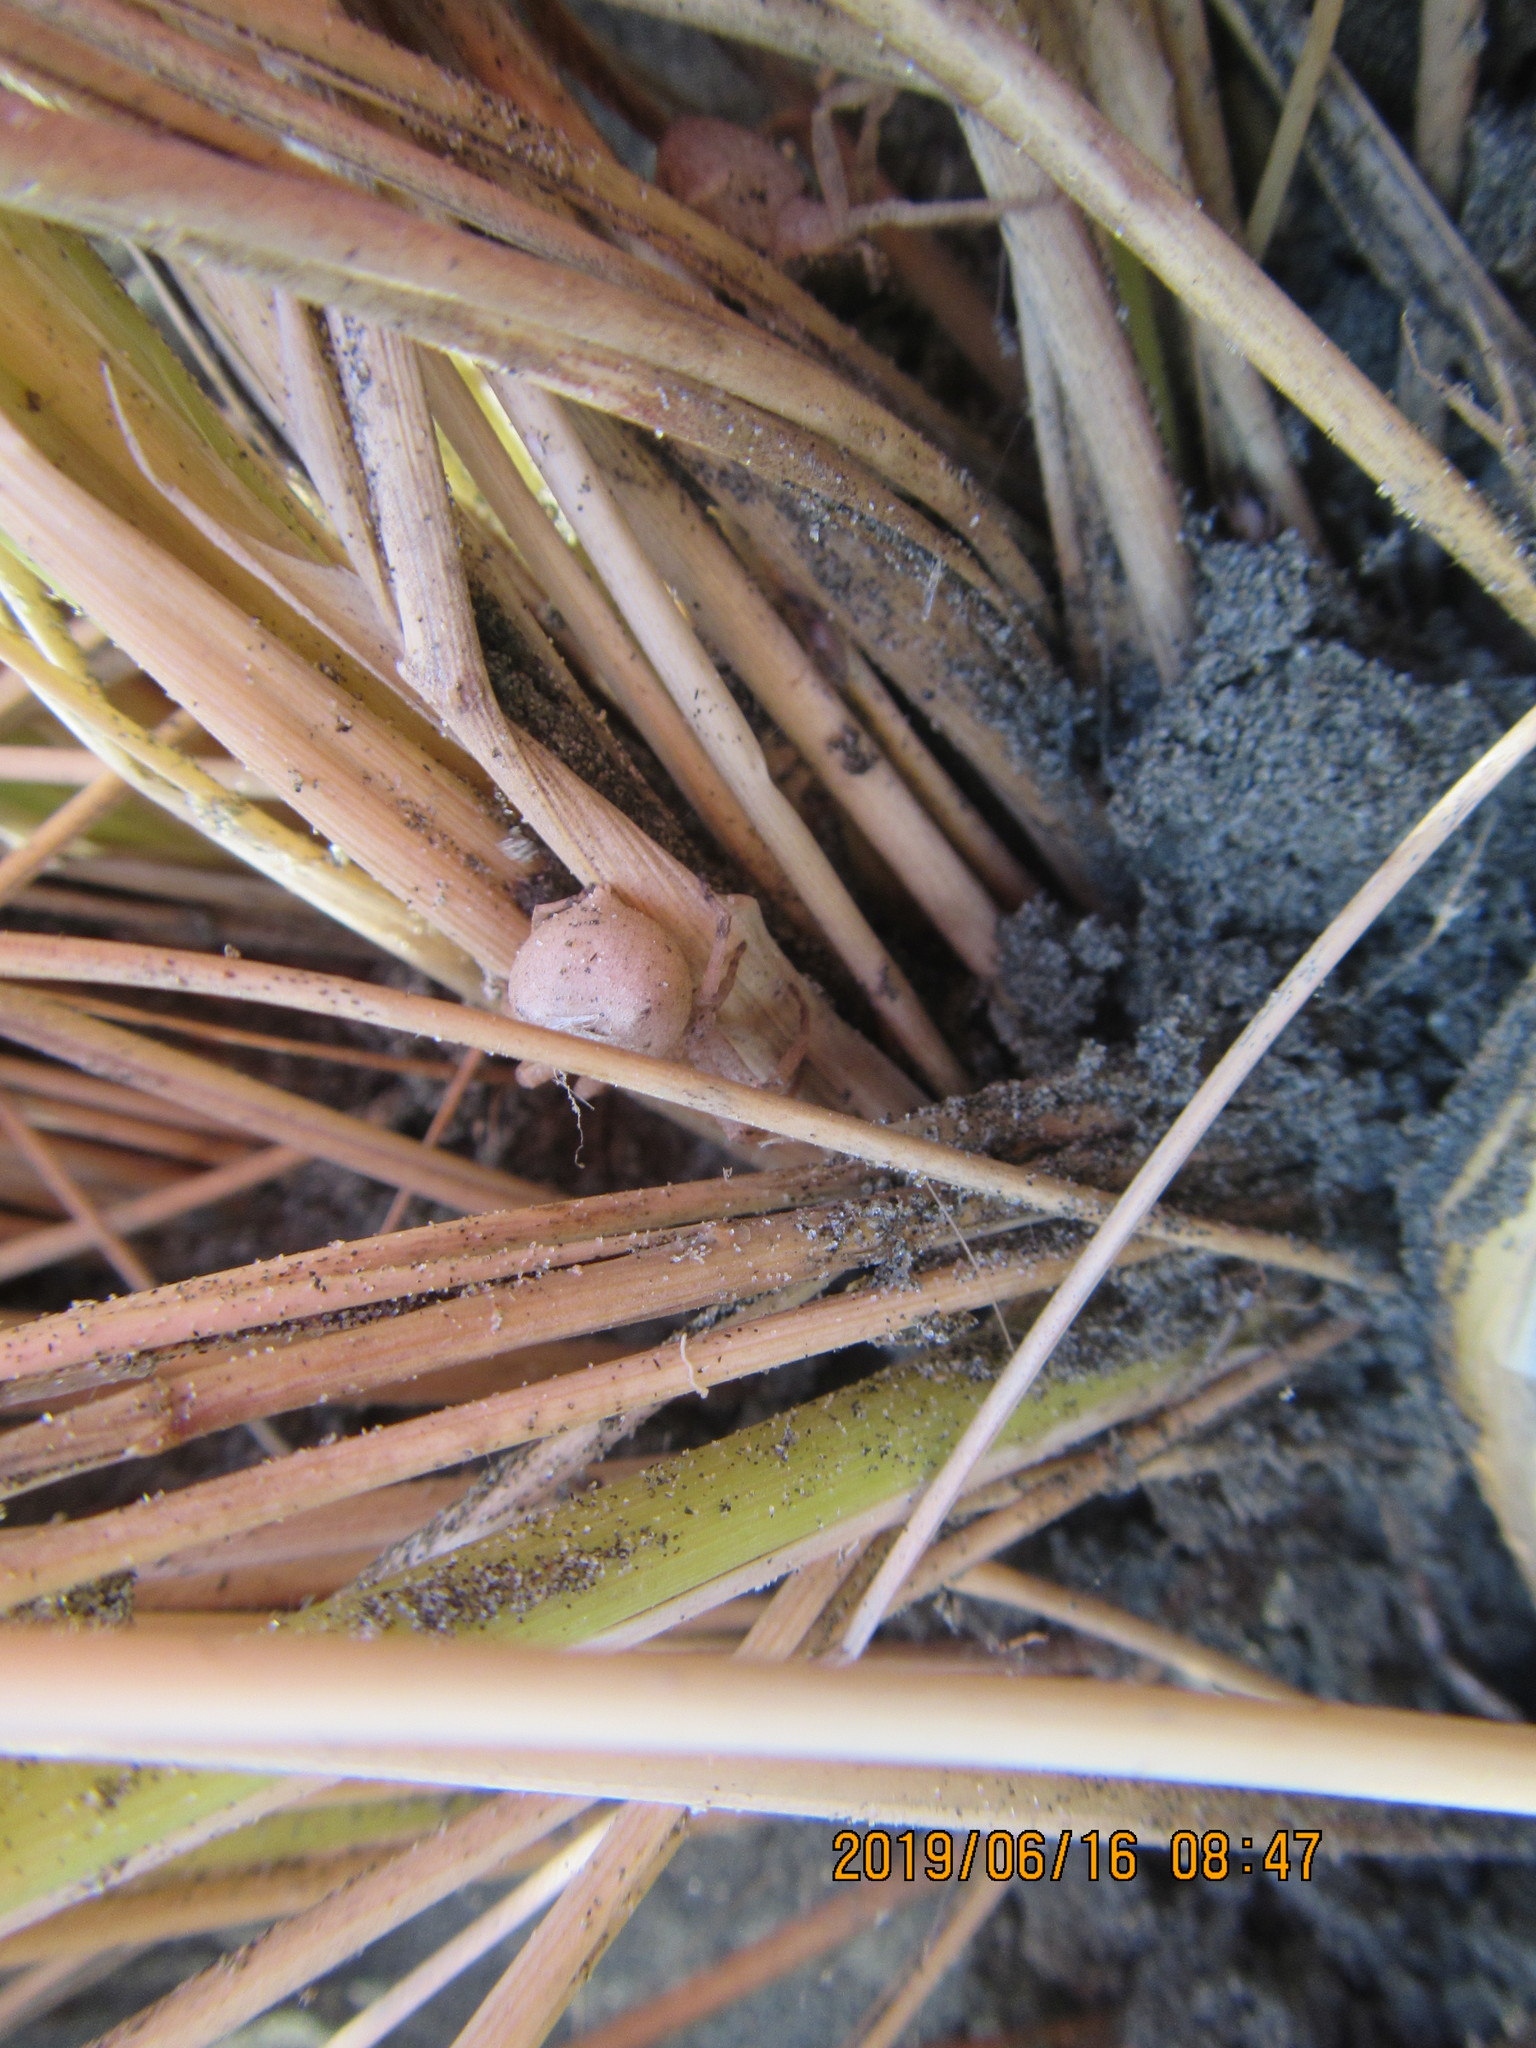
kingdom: Animalia
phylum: Arthropoda
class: Arachnida
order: Araneae
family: Thomisidae
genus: Sidymella
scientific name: Sidymella trapezia
